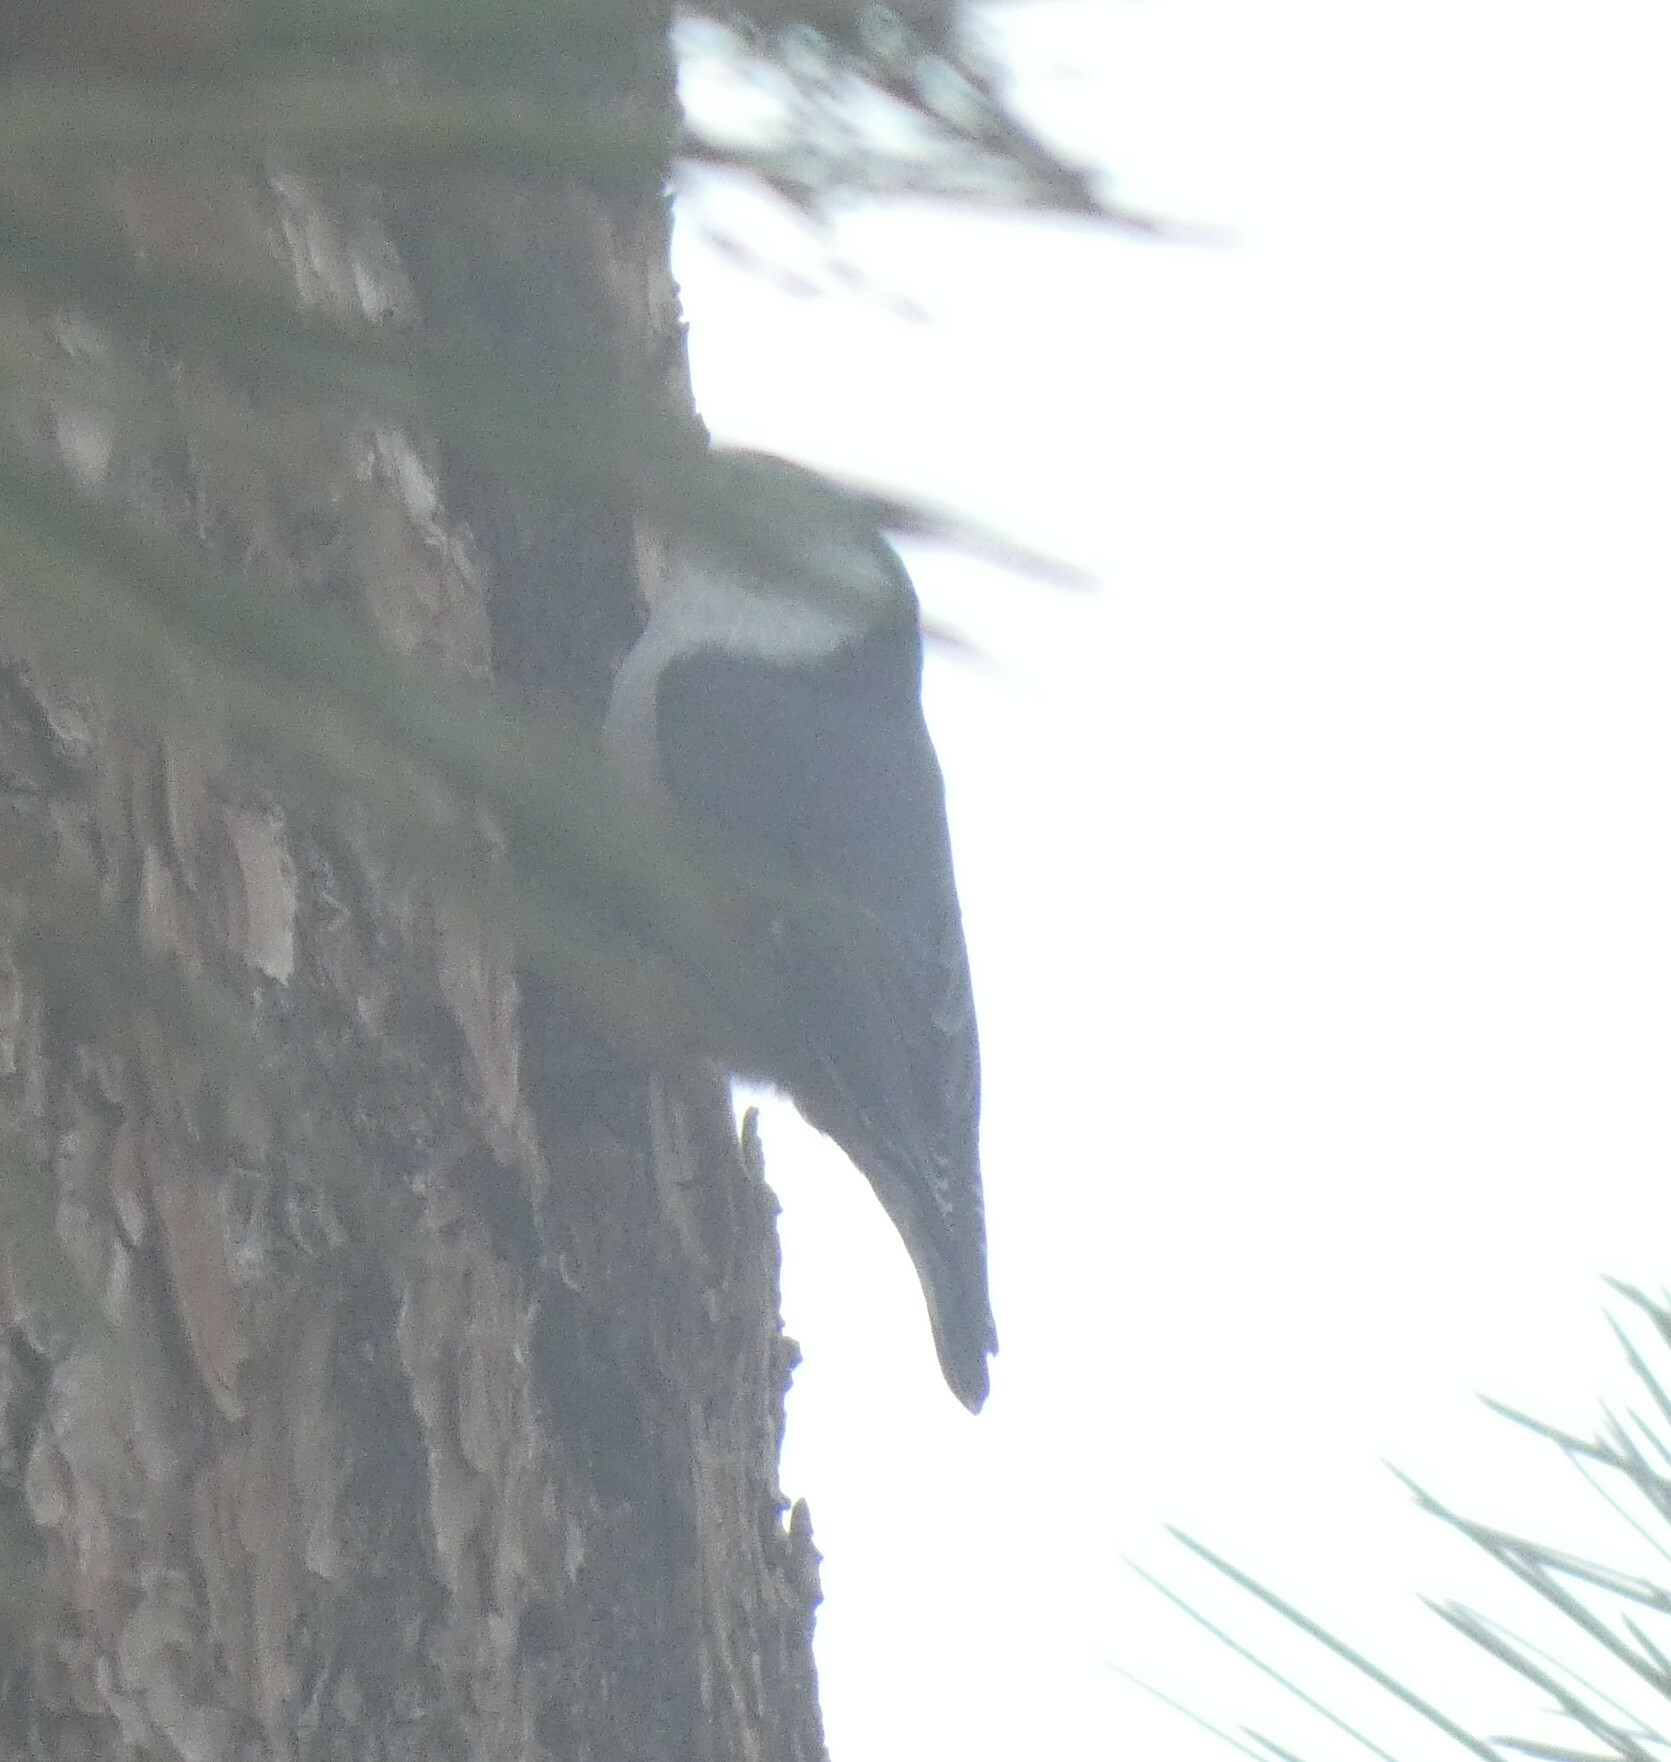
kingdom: Animalia
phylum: Chordata
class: Aves
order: Passeriformes
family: Sittidae
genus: Sitta
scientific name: Sitta carolinensis
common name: White-breasted nuthatch
